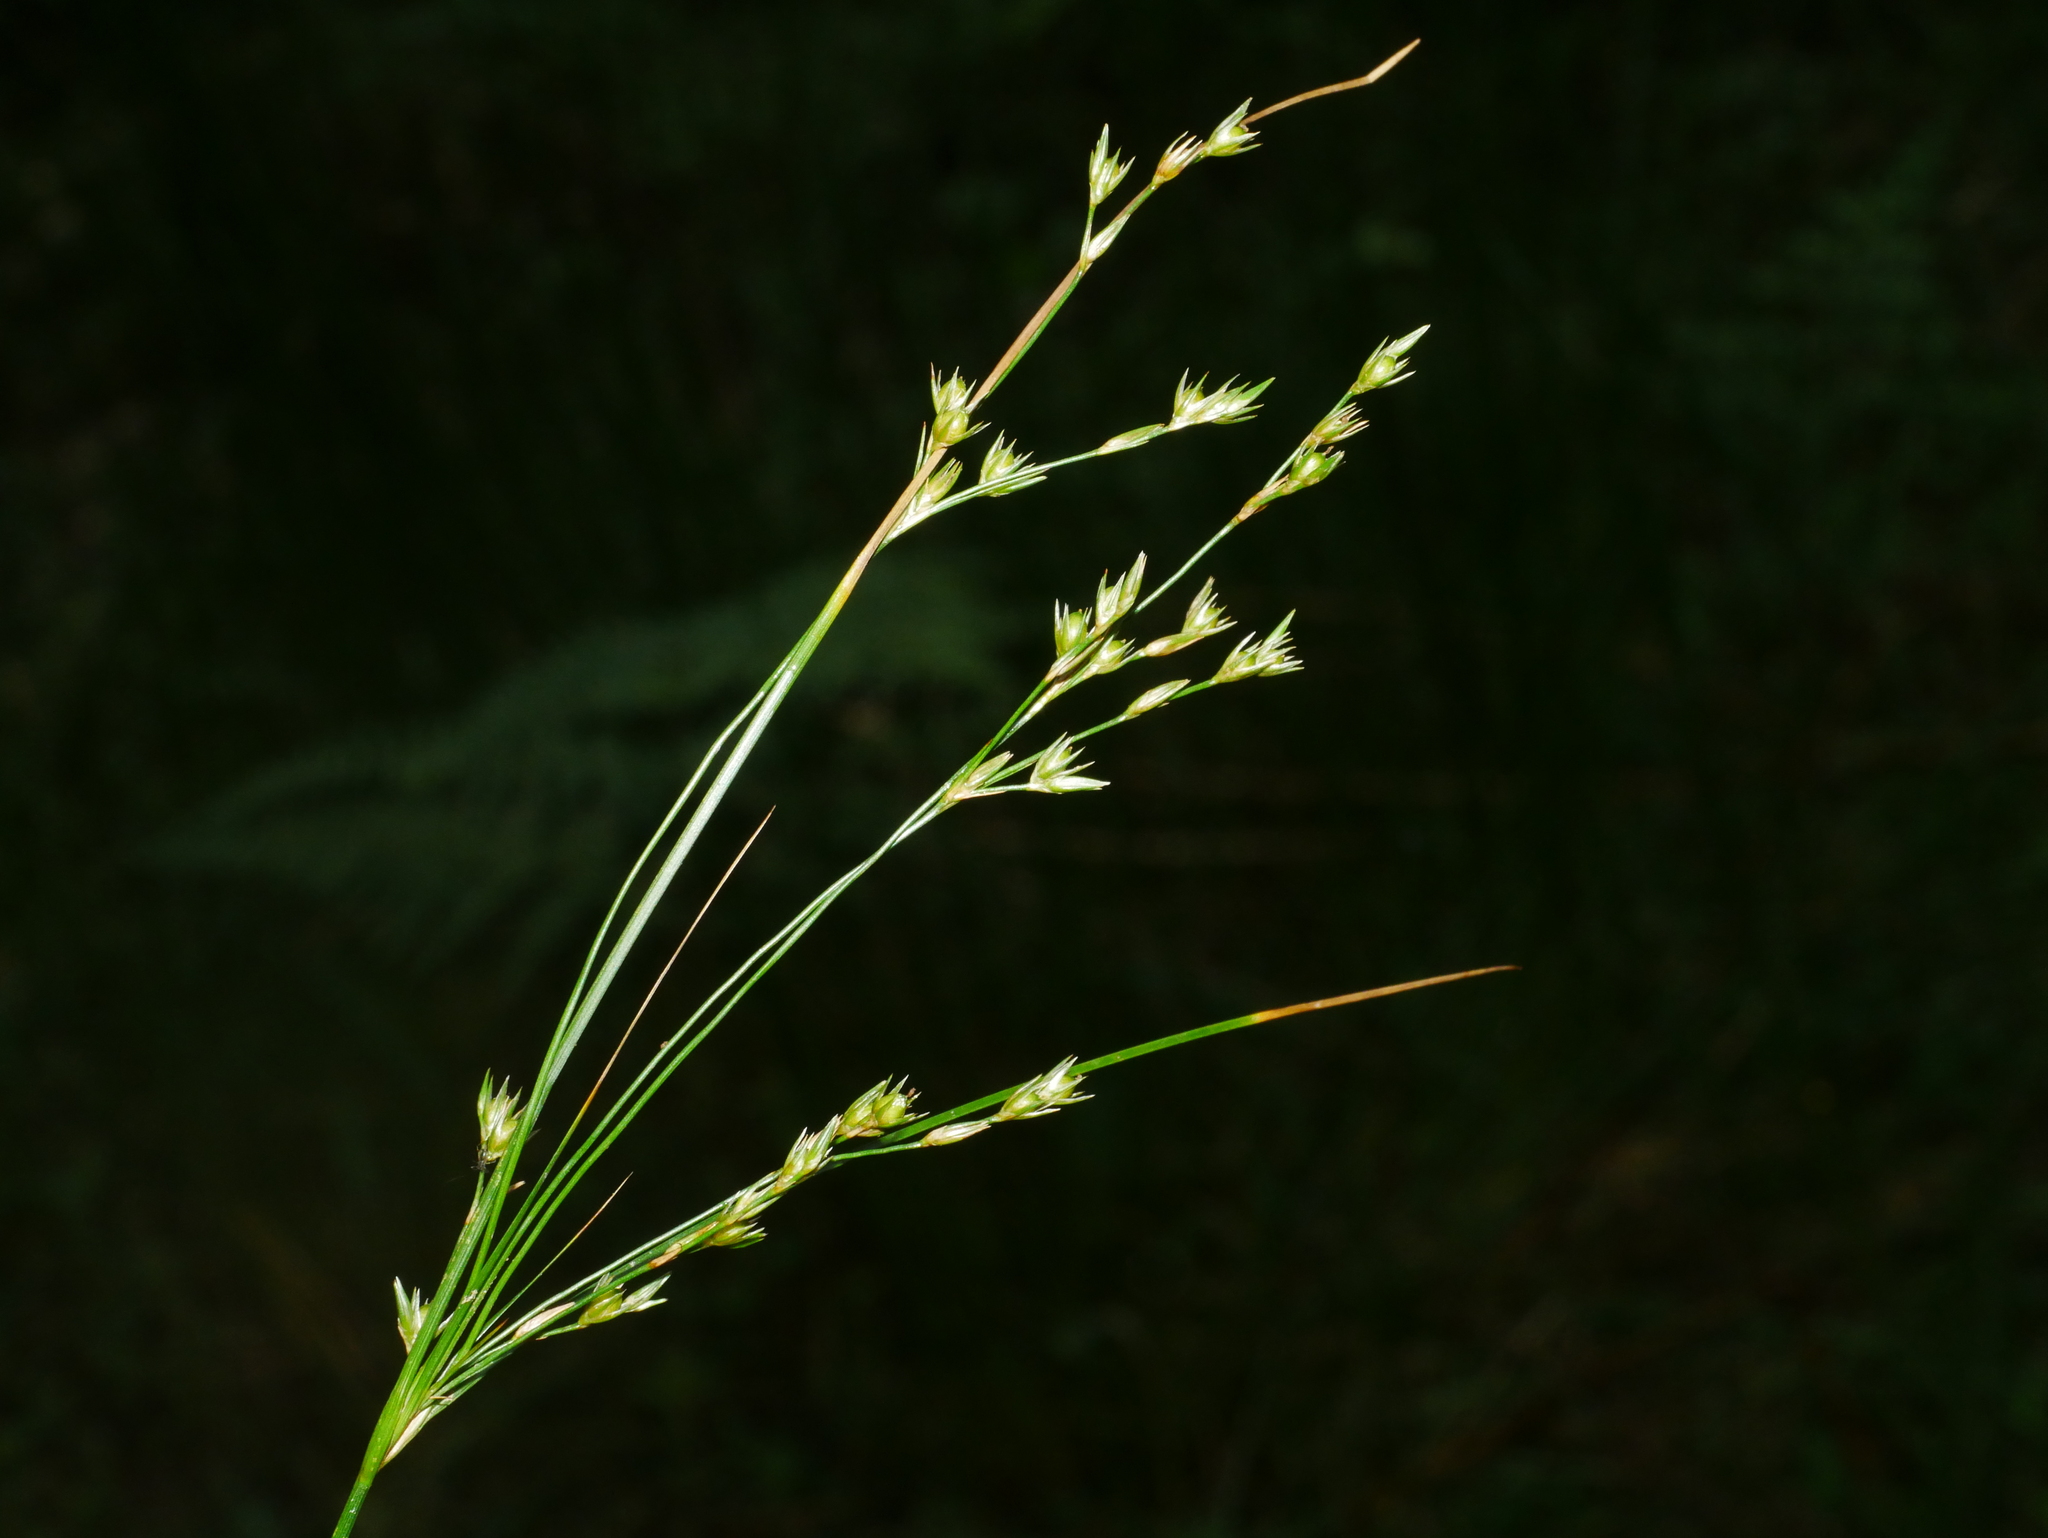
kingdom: Plantae
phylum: Tracheophyta
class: Liliopsida
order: Poales
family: Juncaceae
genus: Juncus
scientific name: Juncus tenuis
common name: Slender rush
